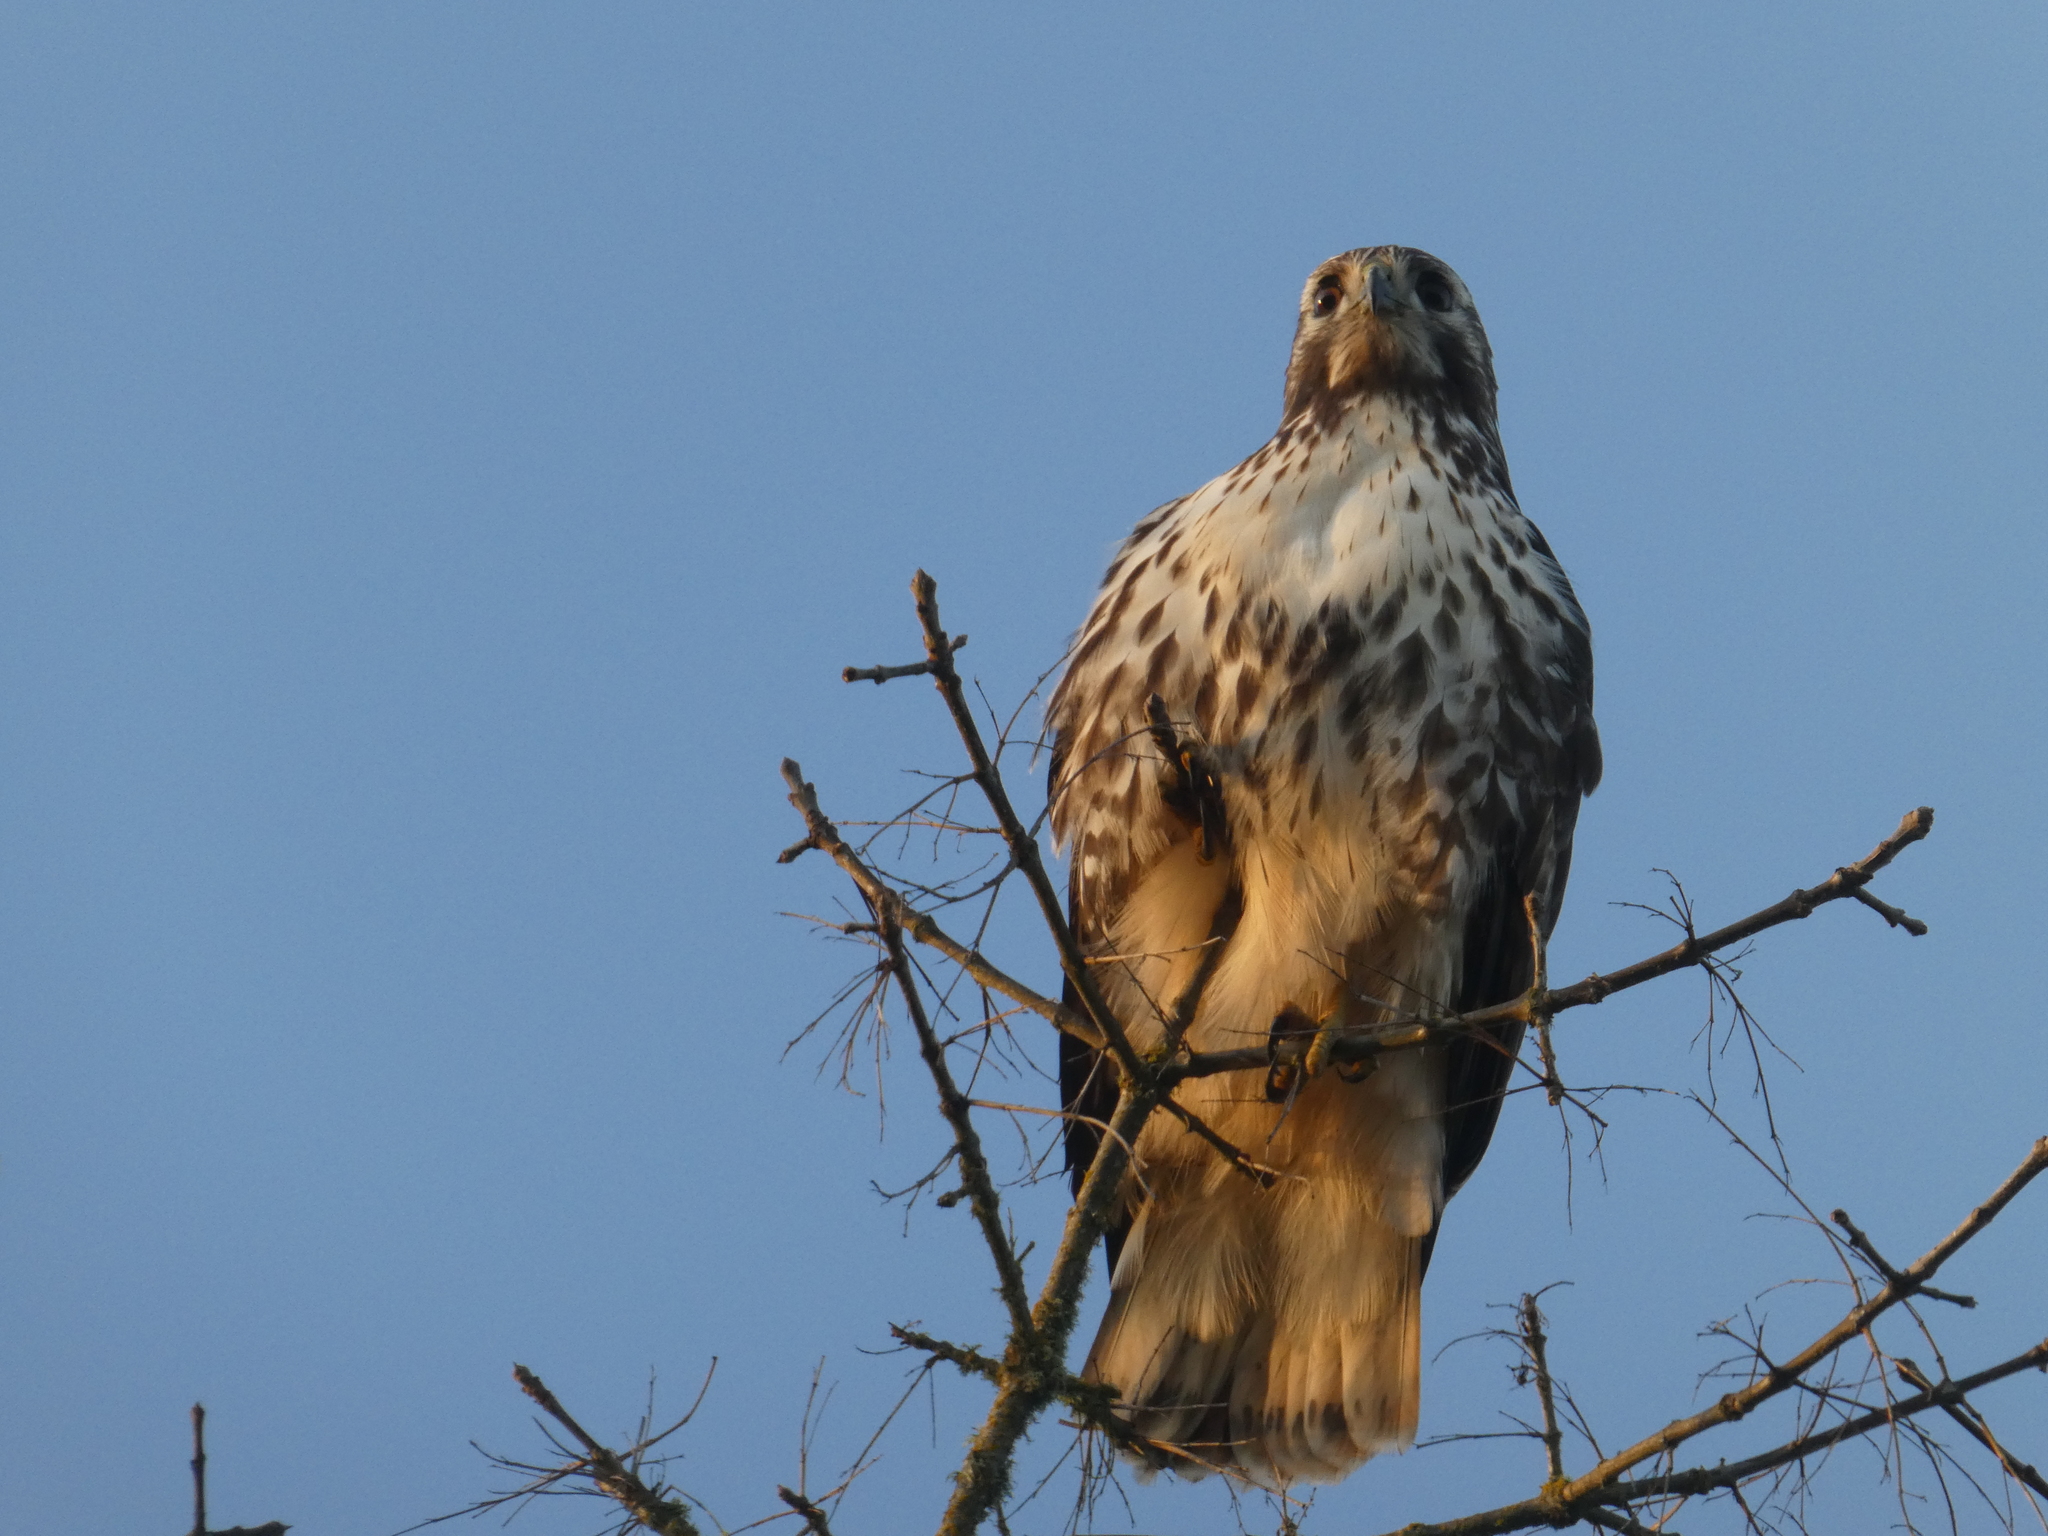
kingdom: Animalia
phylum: Chordata
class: Aves
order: Accipitriformes
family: Accipitridae
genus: Buteo
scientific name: Buteo jamaicensis
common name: Red-tailed hawk
